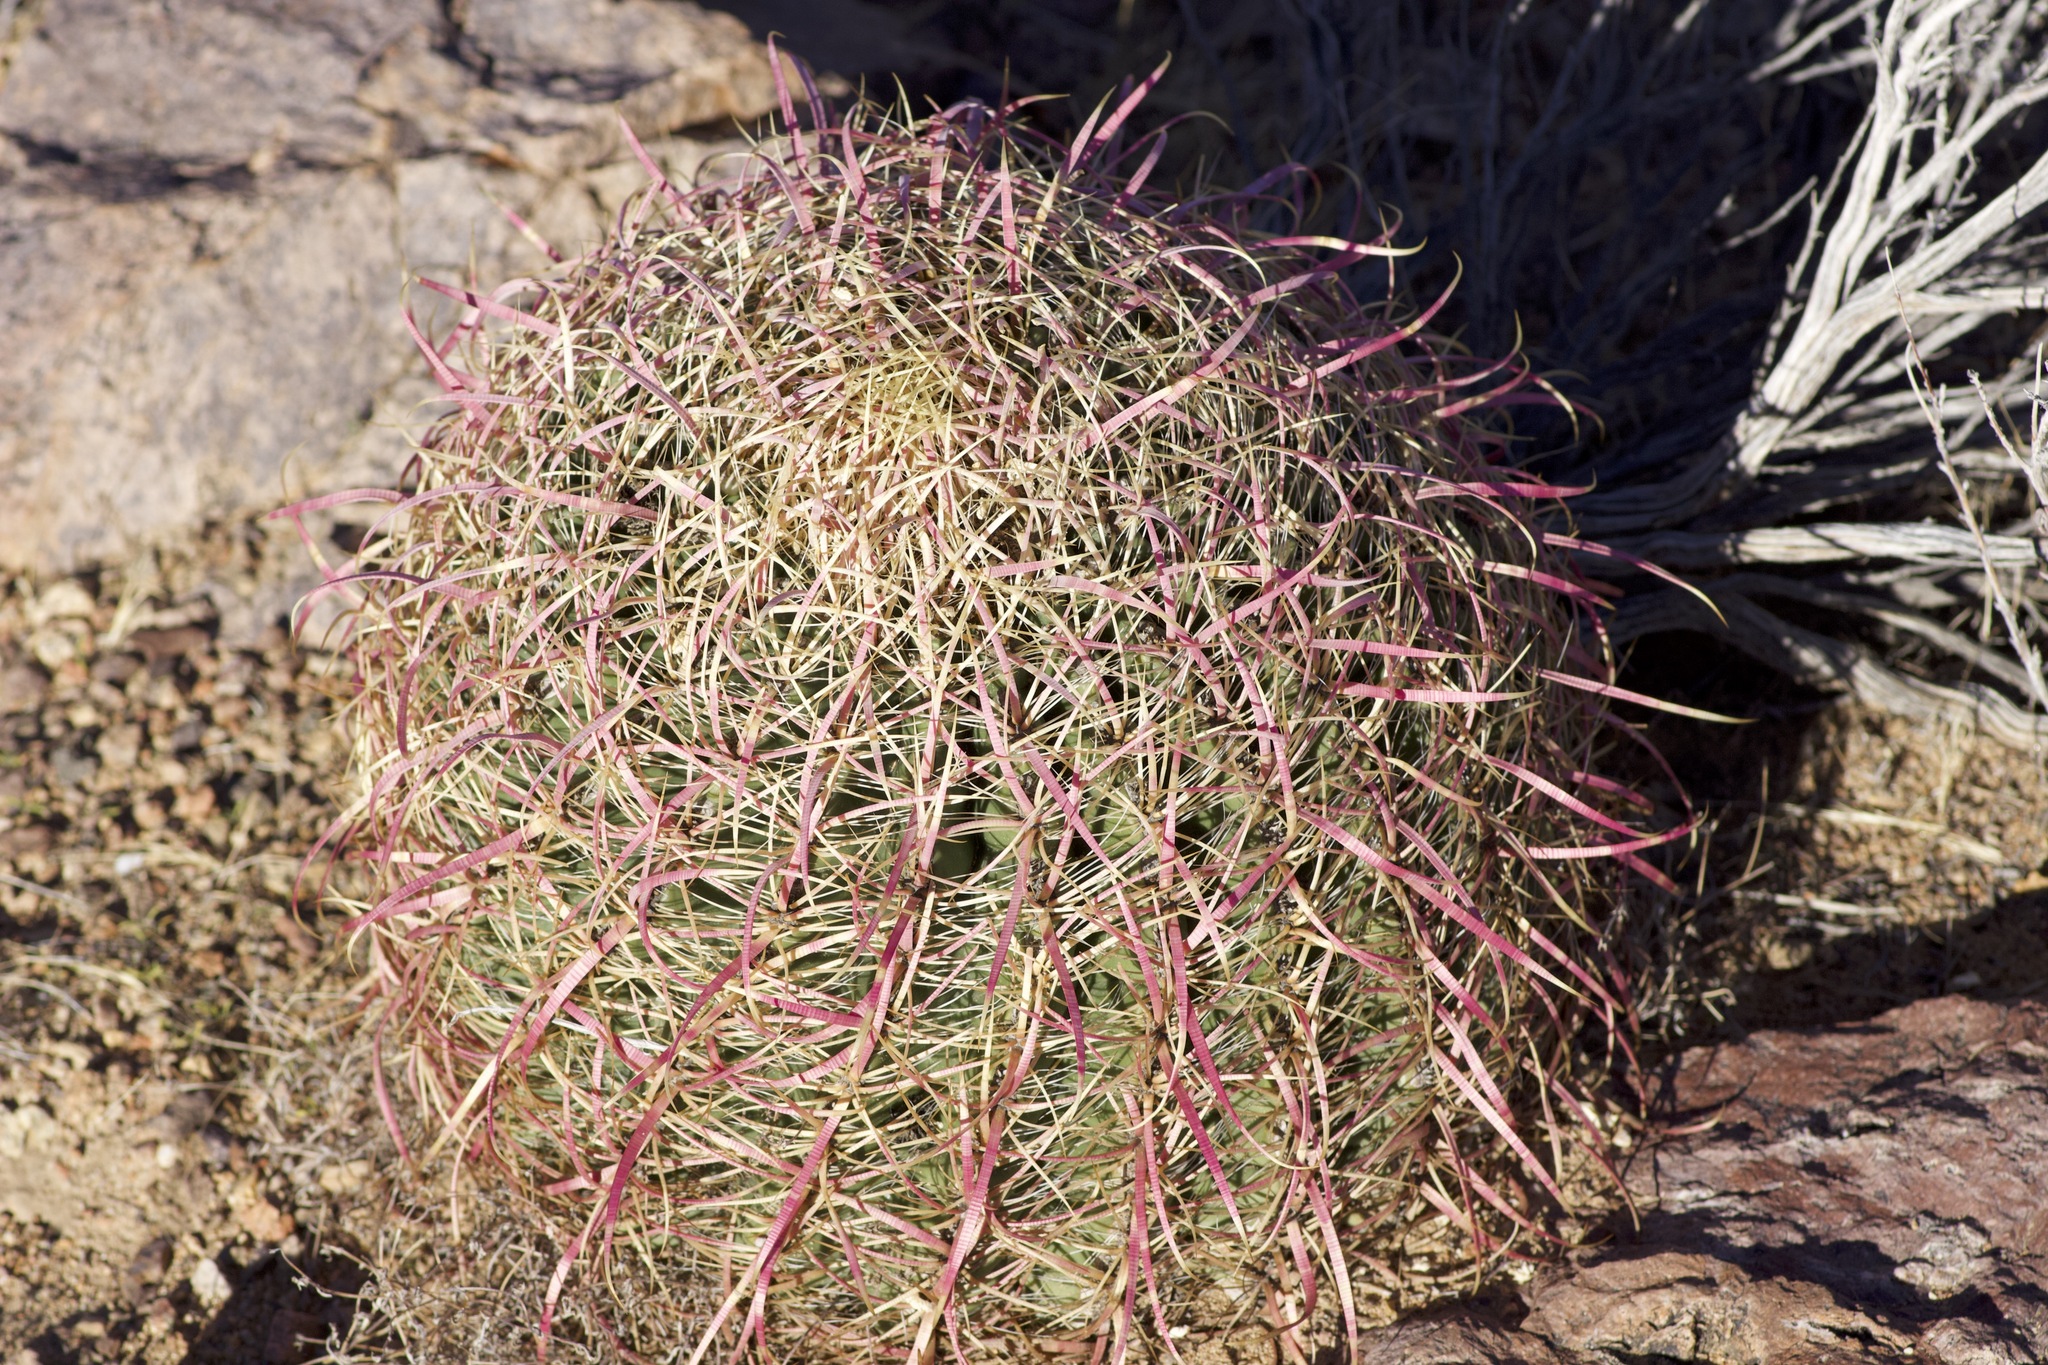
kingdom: Plantae
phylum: Tracheophyta
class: Magnoliopsida
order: Caryophyllales
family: Cactaceae
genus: Ferocactus
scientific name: Ferocactus cylindraceus
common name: California barrel cactus
